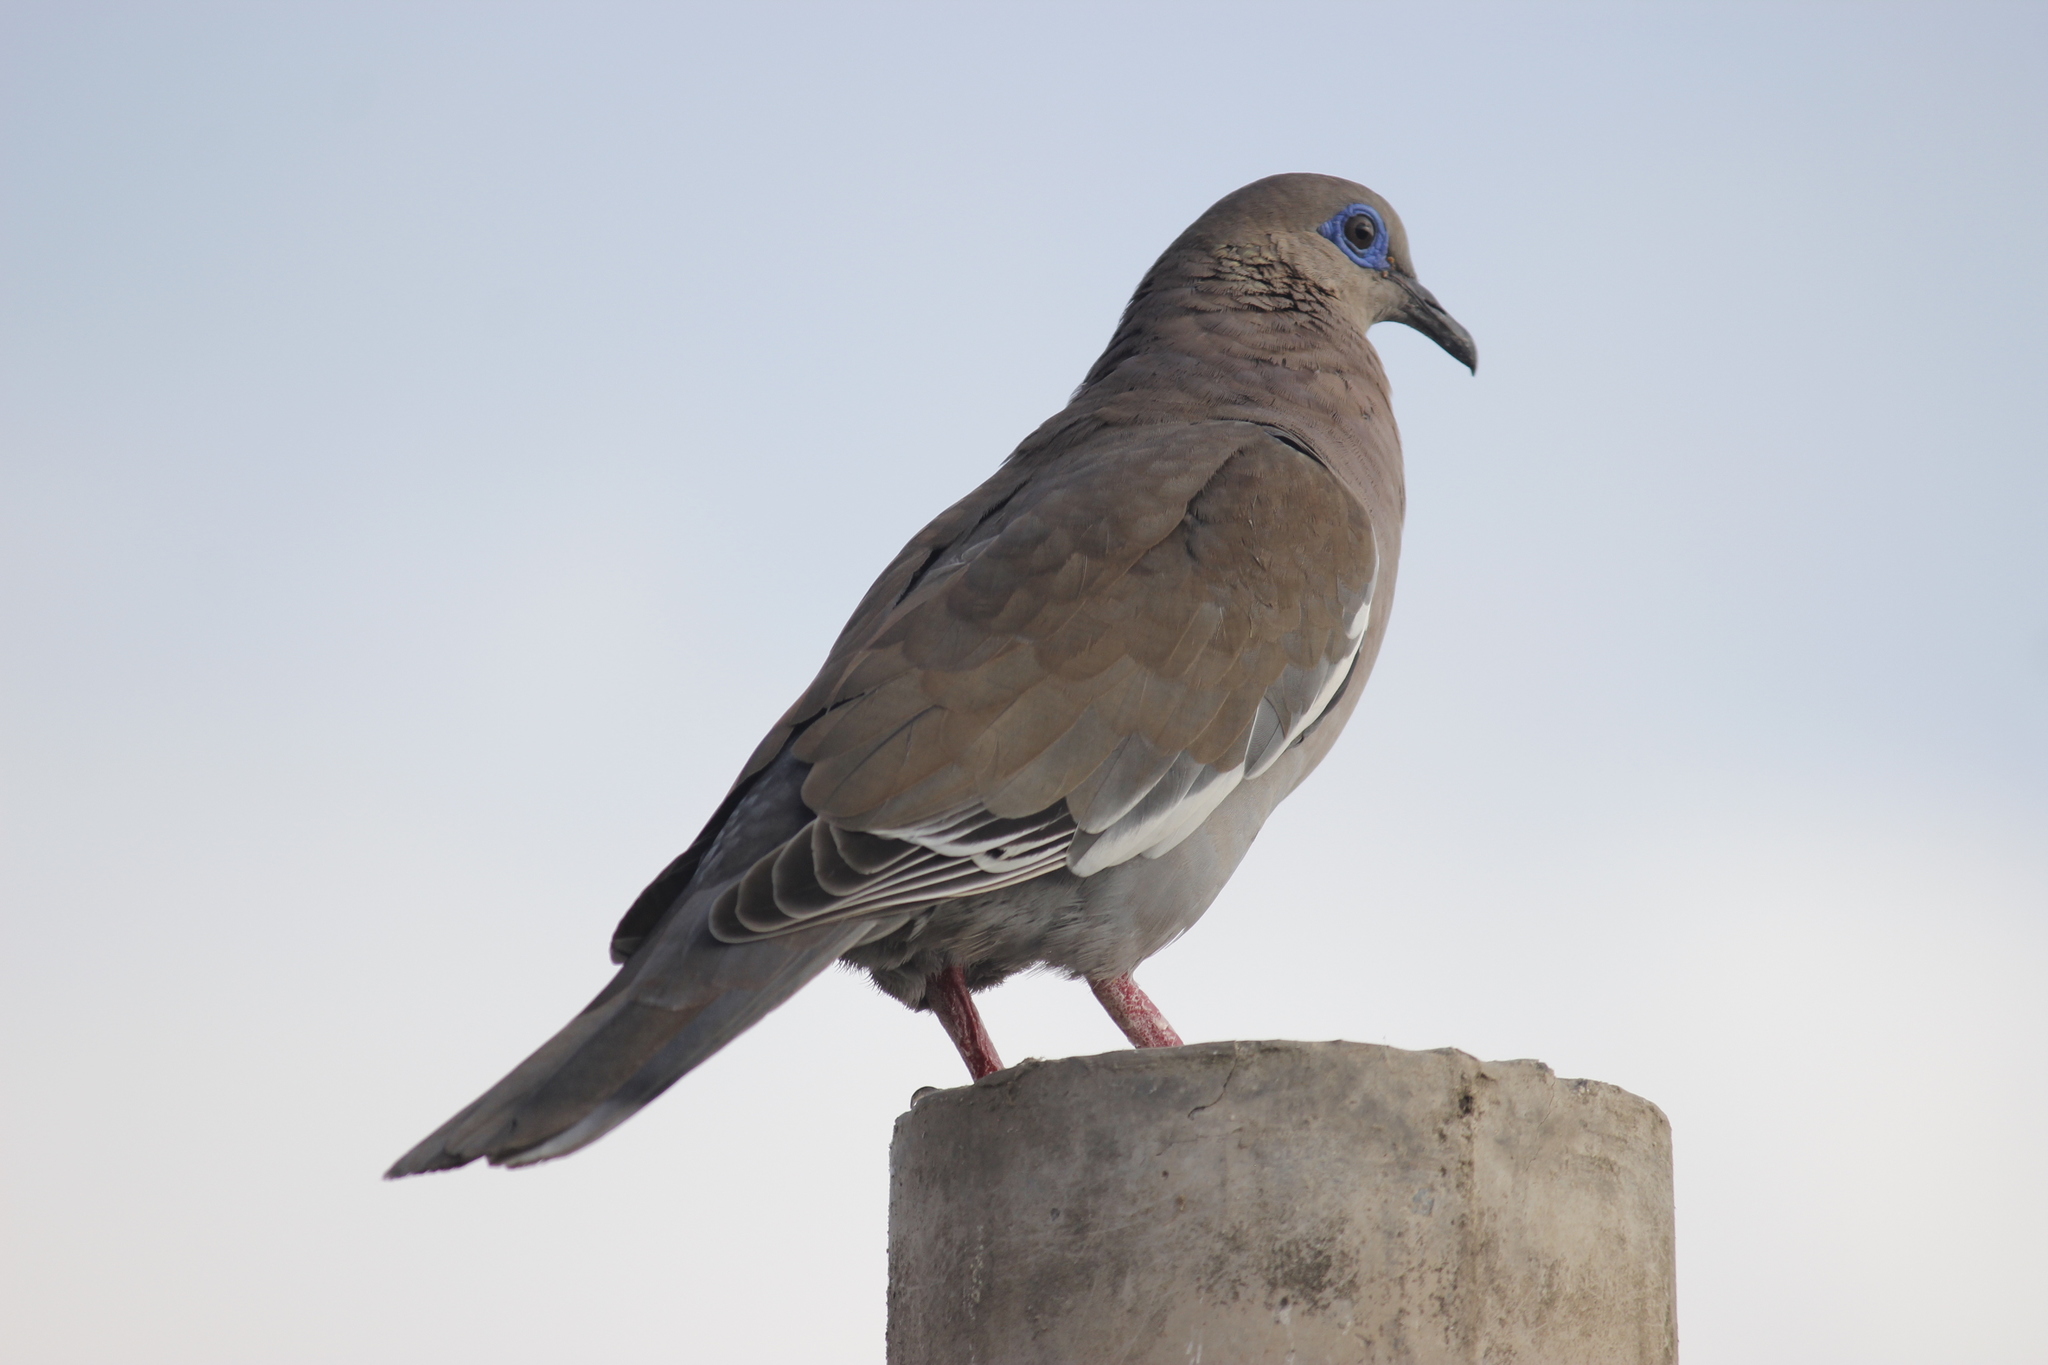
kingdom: Animalia
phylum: Chordata
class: Aves
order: Columbiformes
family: Columbidae
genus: Zenaida
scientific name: Zenaida meloda
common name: West peruvian dove
